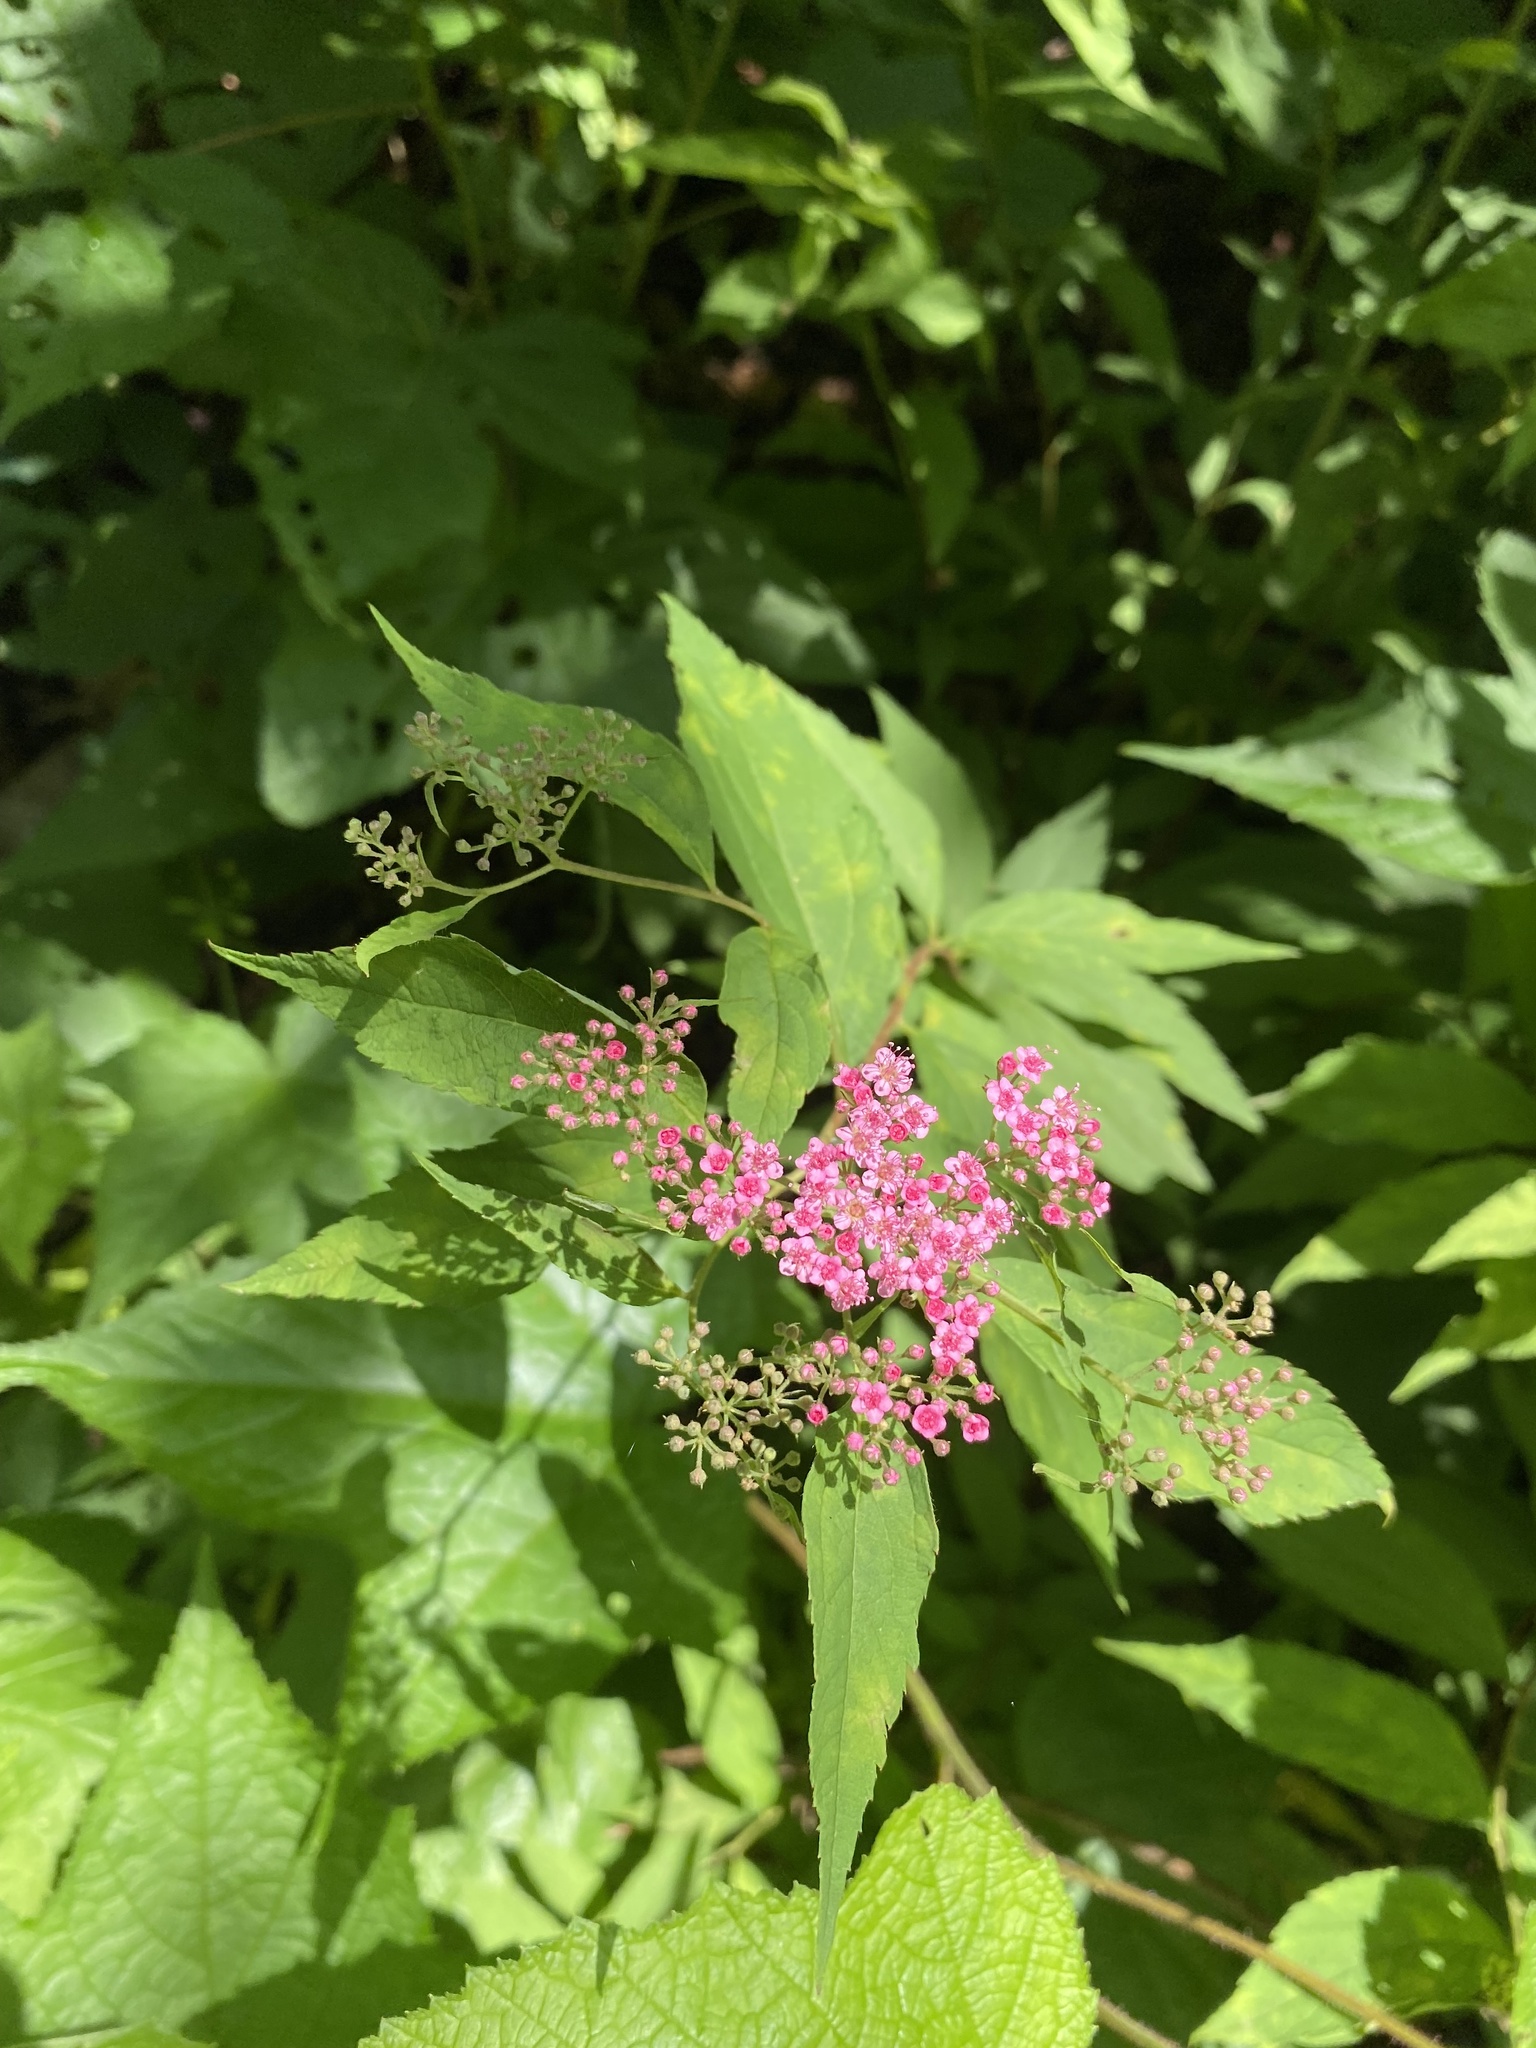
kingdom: Plantae
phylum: Tracheophyta
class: Magnoliopsida
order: Rosales
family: Rosaceae
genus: Spiraea
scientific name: Spiraea japonica
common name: Japanese spiraea
